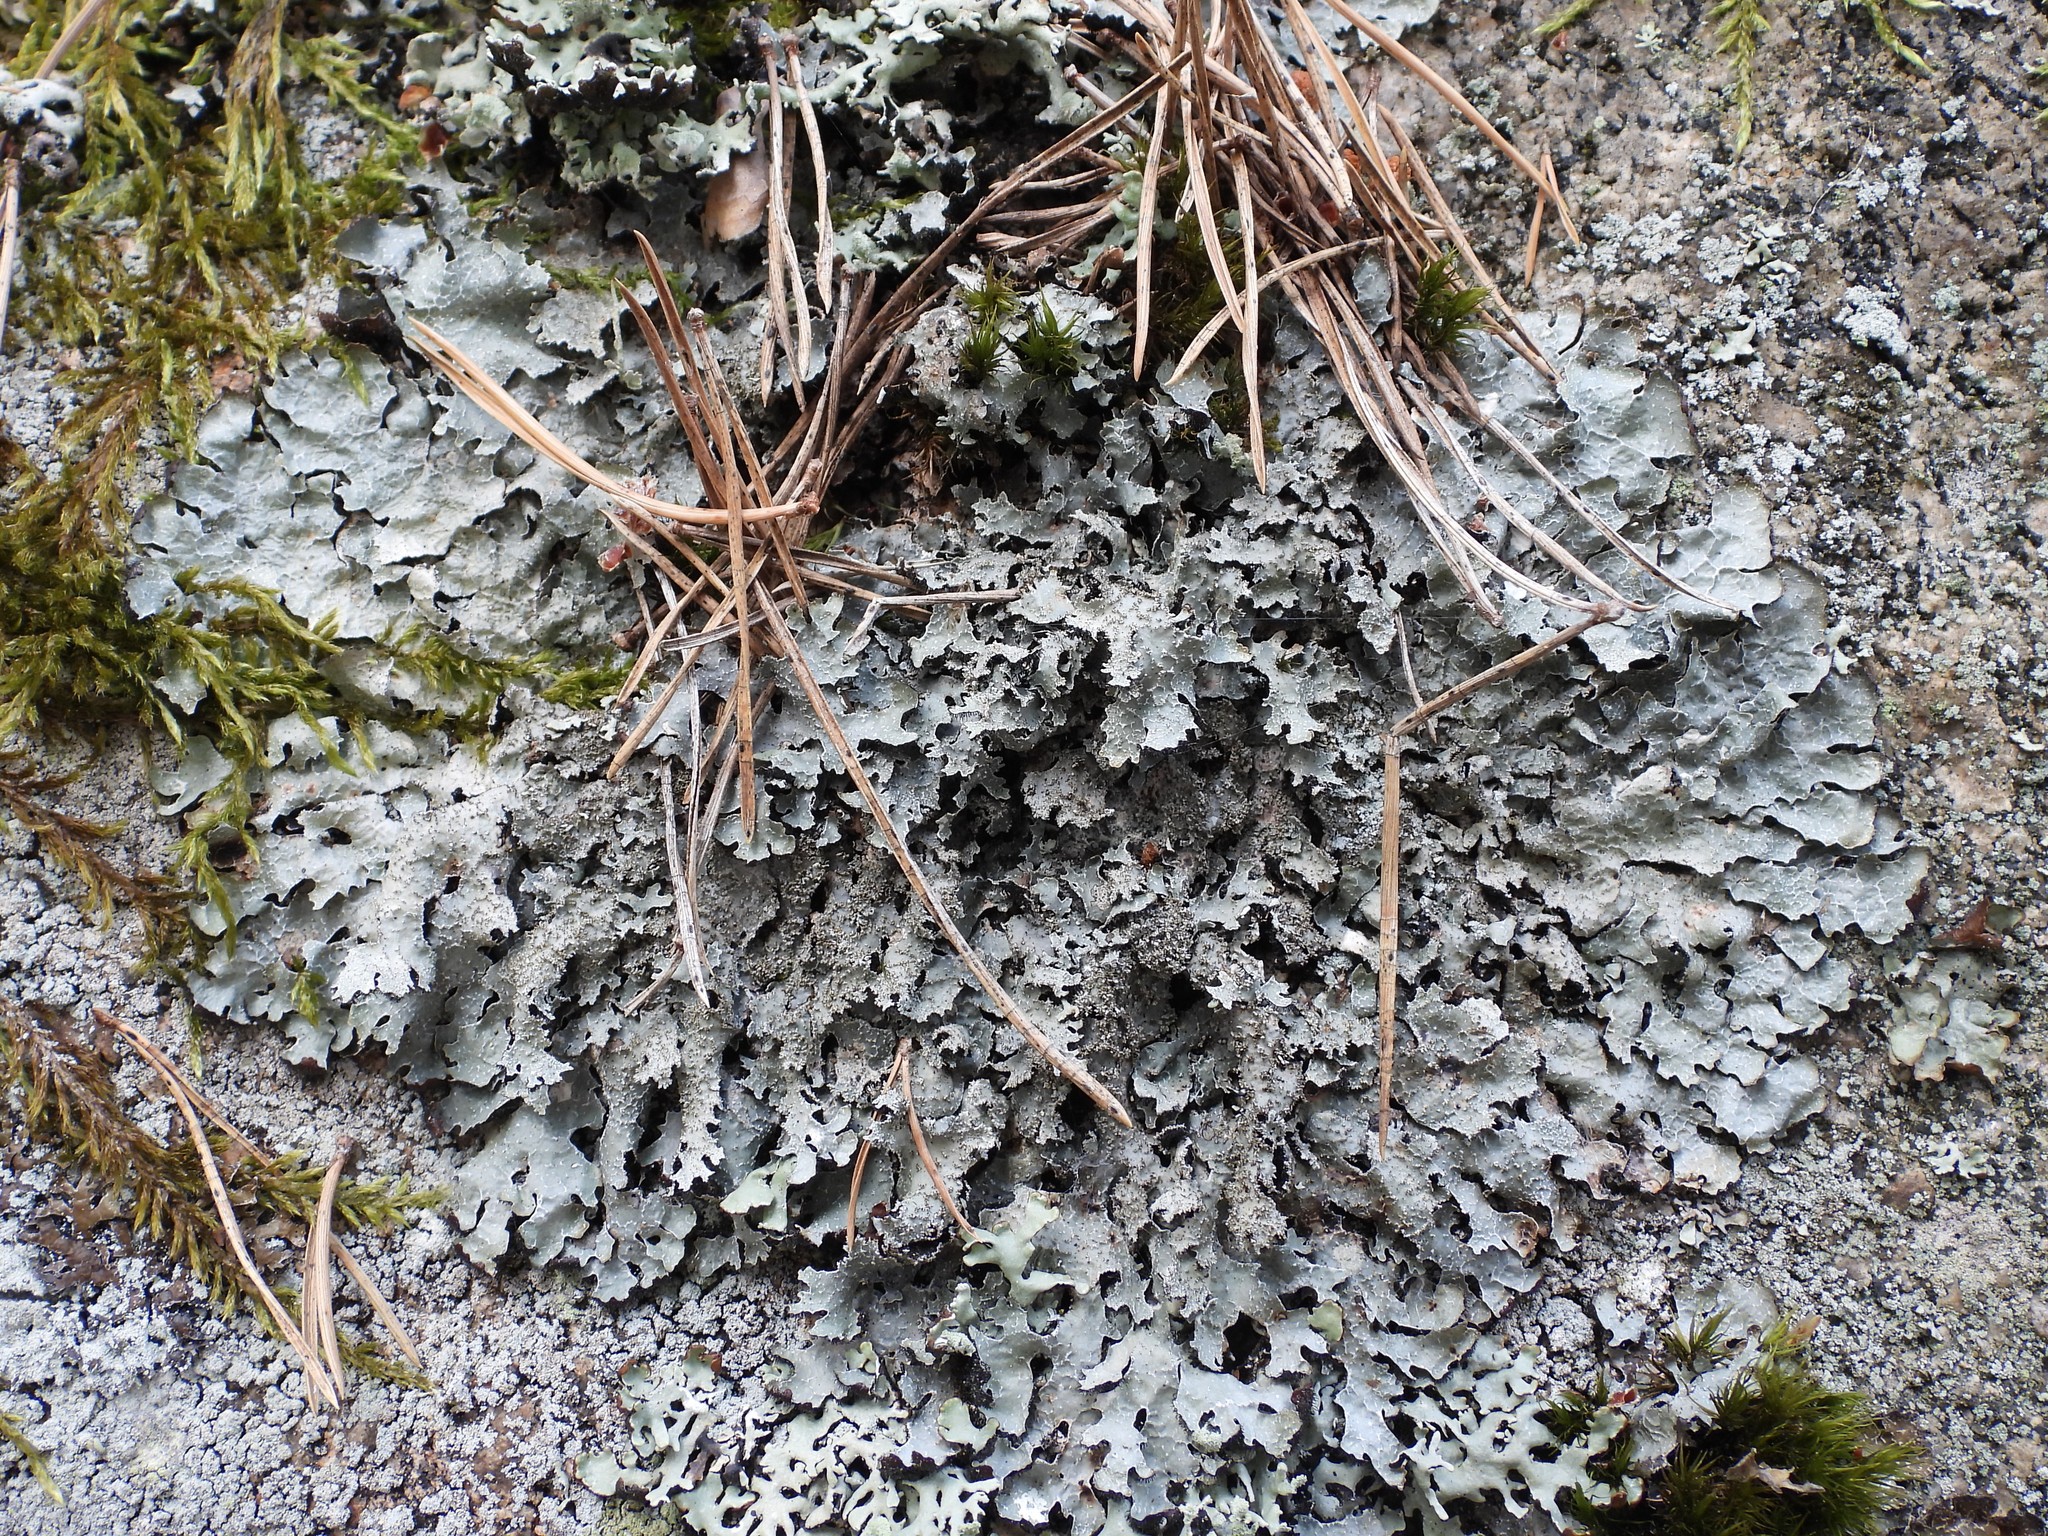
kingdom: Fungi
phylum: Ascomycota
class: Lecanoromycetes
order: Lecanorales
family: Parmeliaceae
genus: Parmelia
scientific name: Parmelia saxatilis
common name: Salted shield lichen
